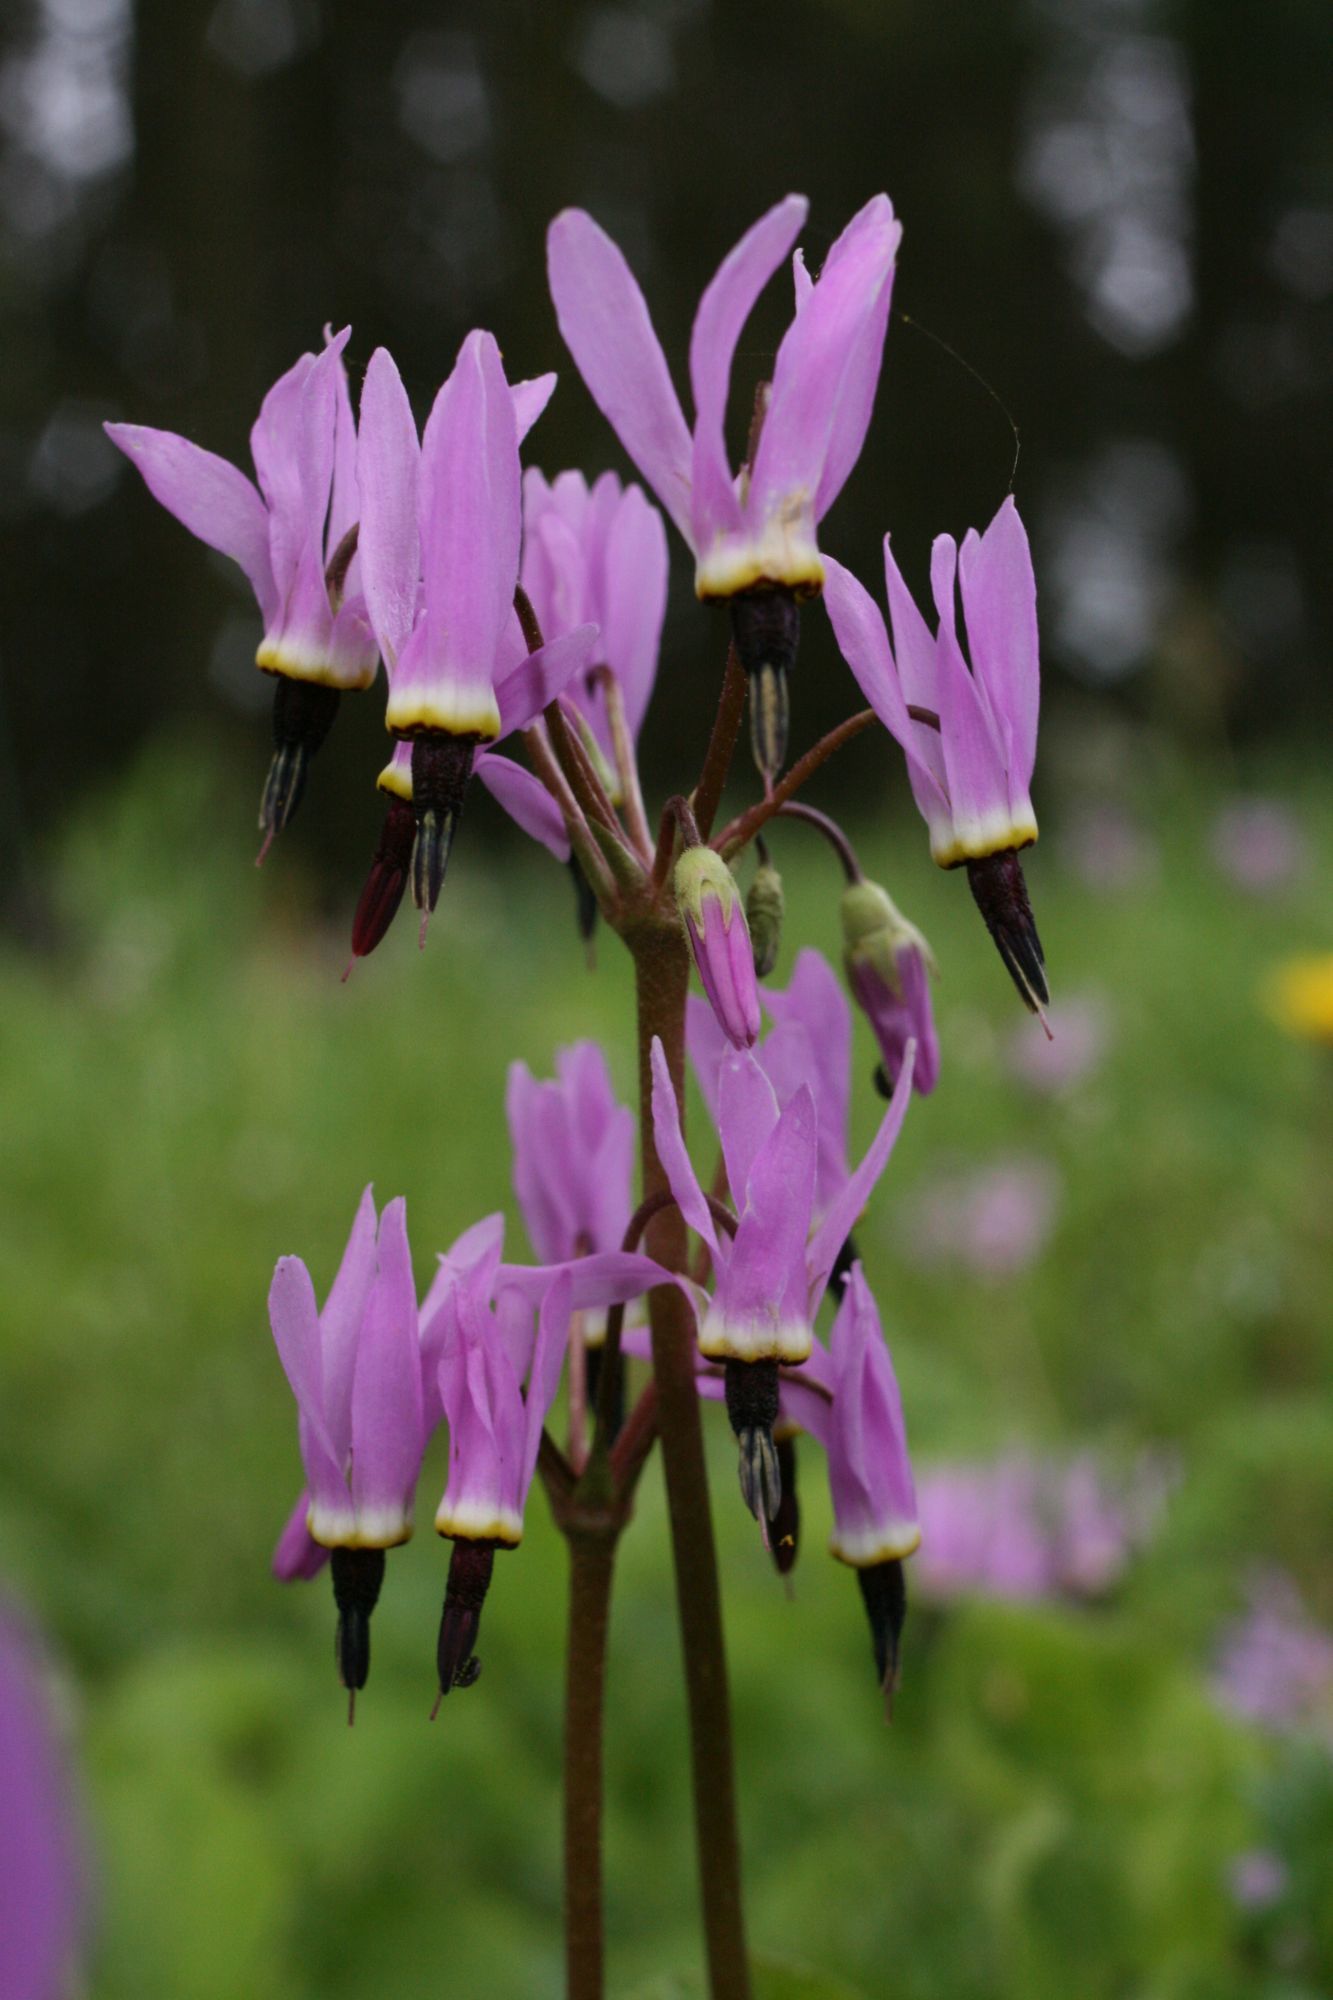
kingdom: Plantae
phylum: Tracheophyta
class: Magnoliopsida
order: Ericales
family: Primulaceae
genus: Dodecatheon
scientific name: Dodecatheon hendersonii
